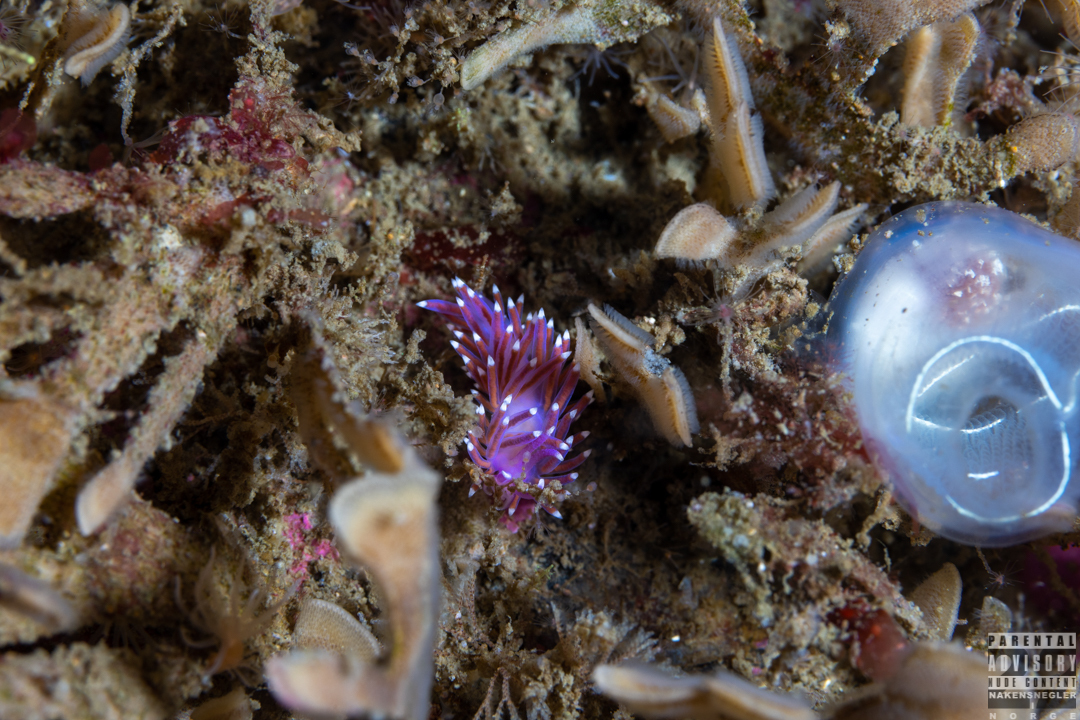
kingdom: Animalia
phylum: Mollusca
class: Gastropoda
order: Nudibranchia
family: Flabellinidae
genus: Edmundsella
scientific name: Edmundsella pedata
